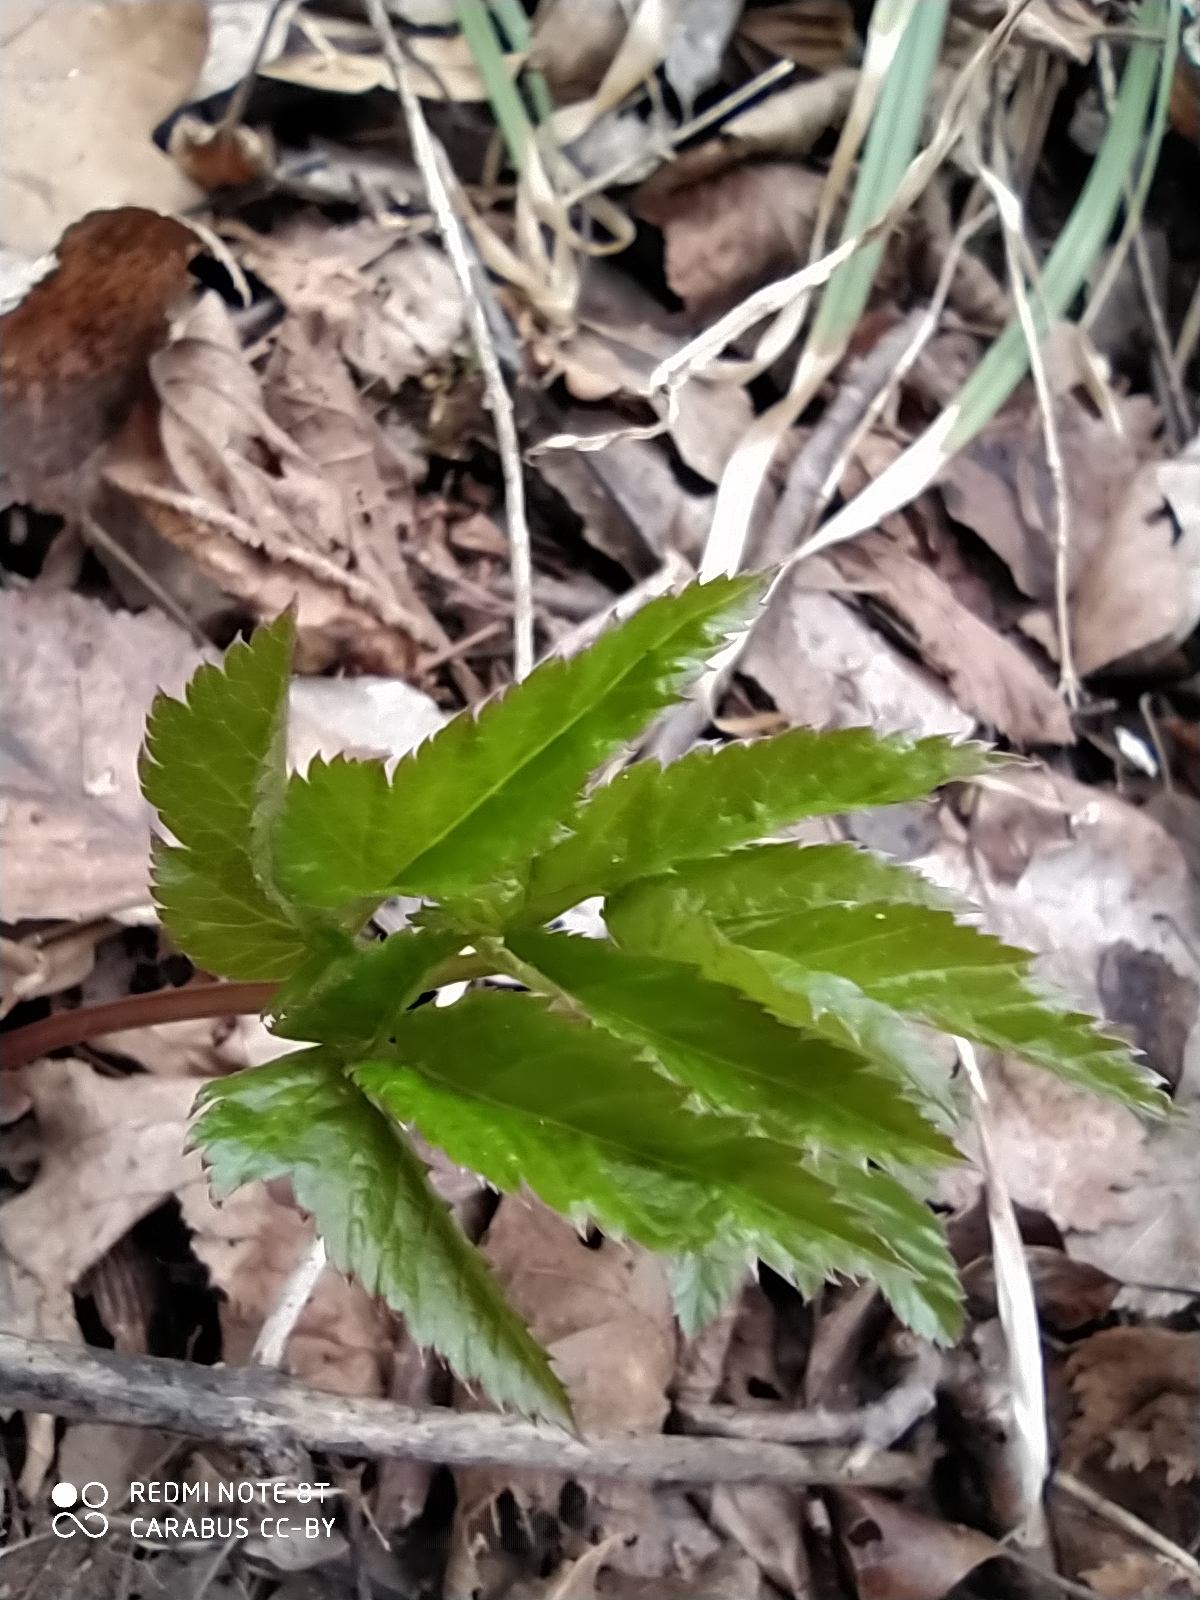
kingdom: Plantae
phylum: Tracheophyta
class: Magnoliopsida
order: Apiales
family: Apiaceae
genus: Aegopodium
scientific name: Aegopodium podagraria
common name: Ground-elder
